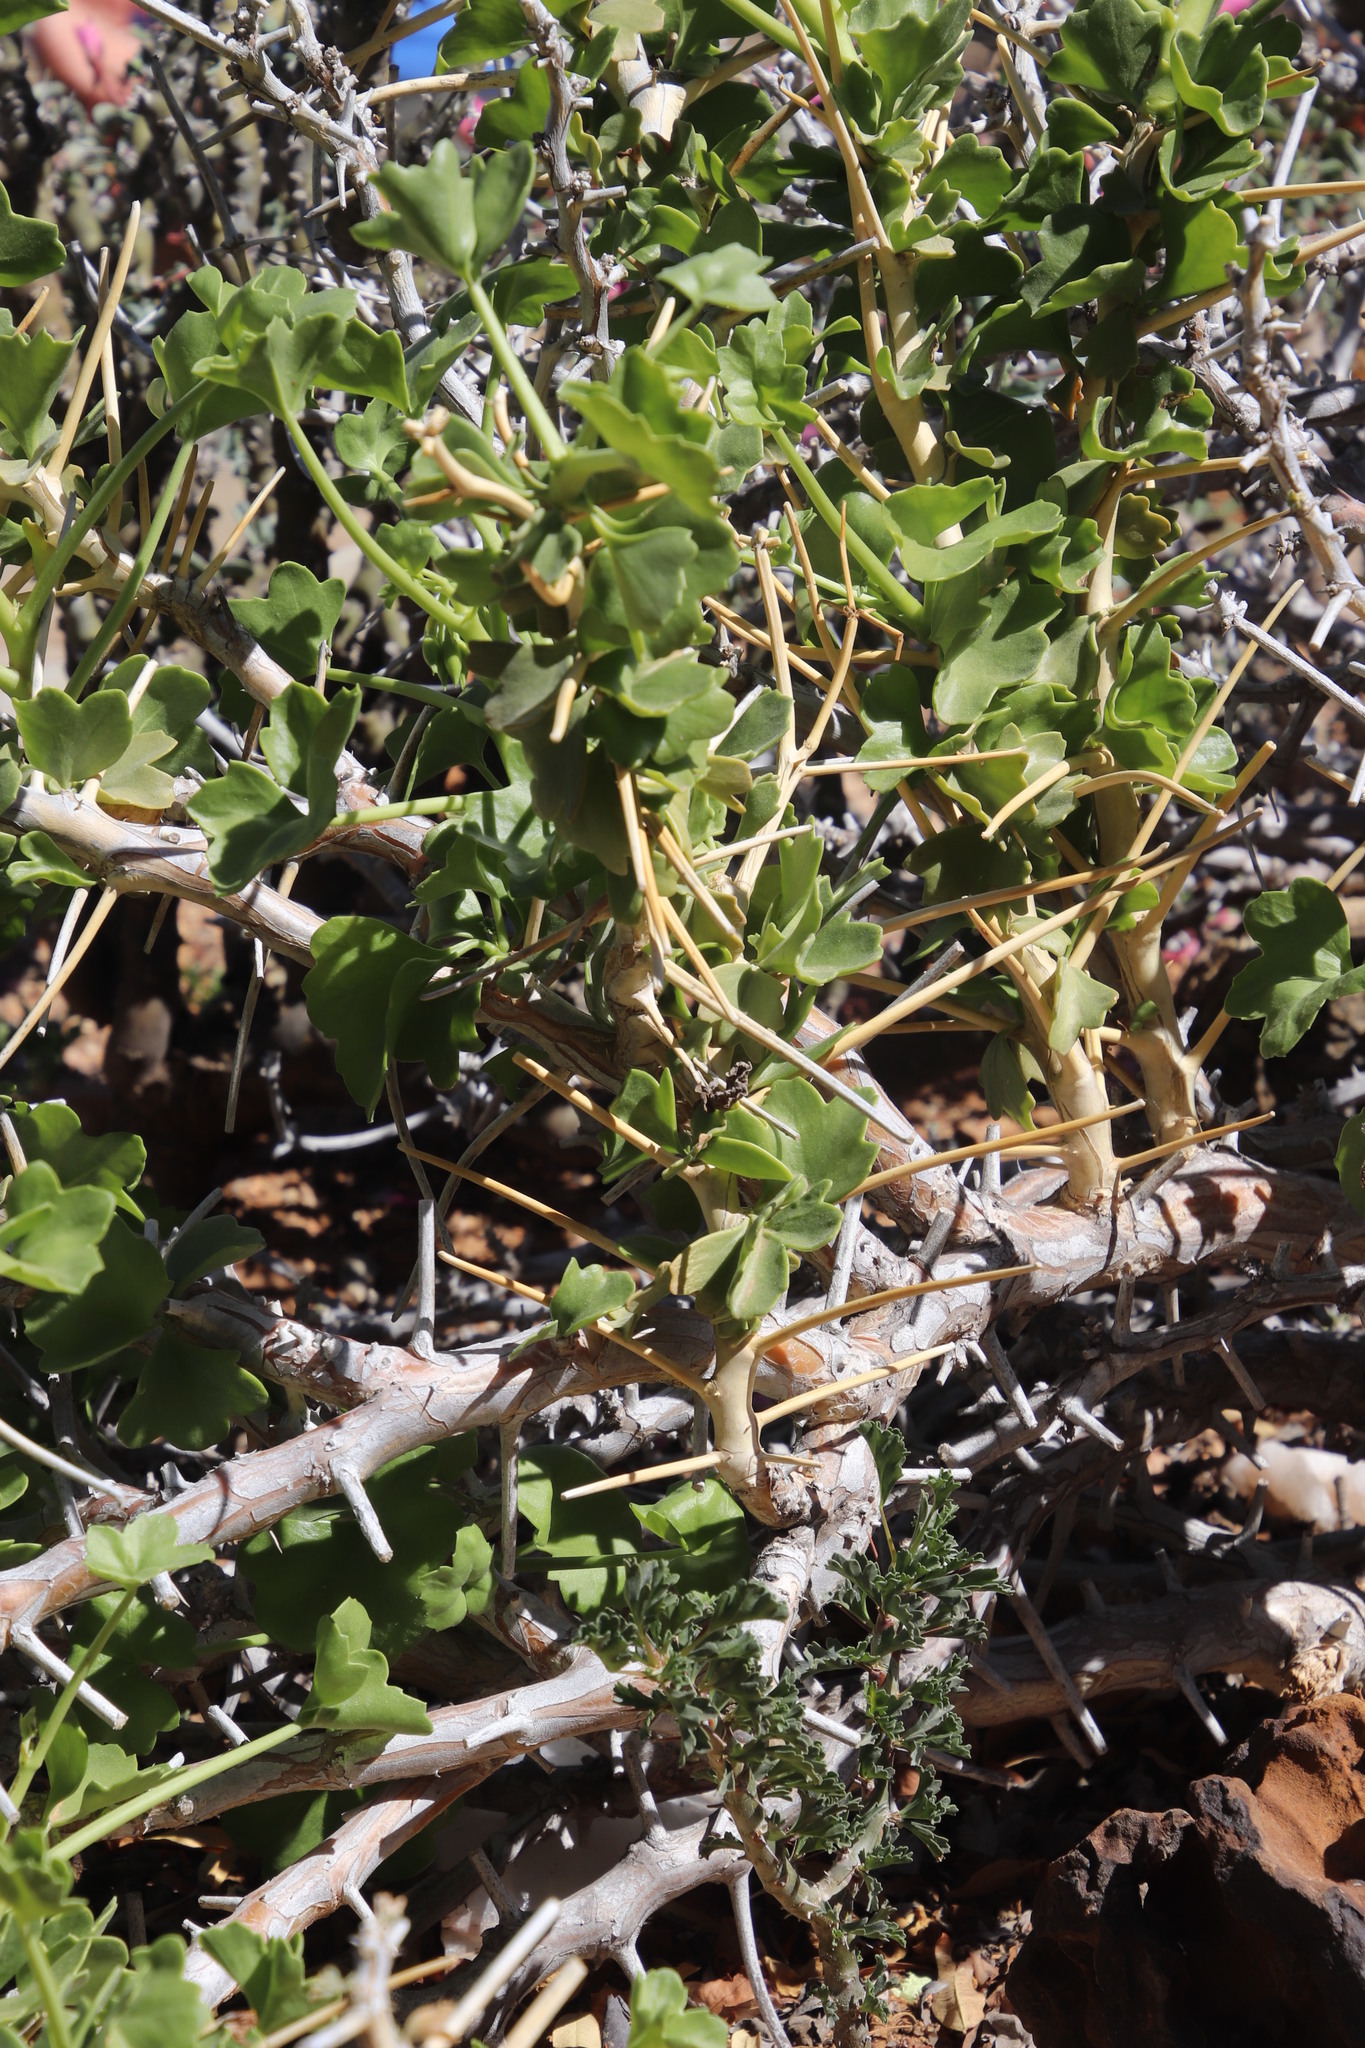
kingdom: Plantae
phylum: Tracheophyta
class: Magnoliopsida
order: Geraniales
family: Geraniaceae
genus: Pelargonium
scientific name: Pelargonium spinosum
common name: Thorny pelargonium
